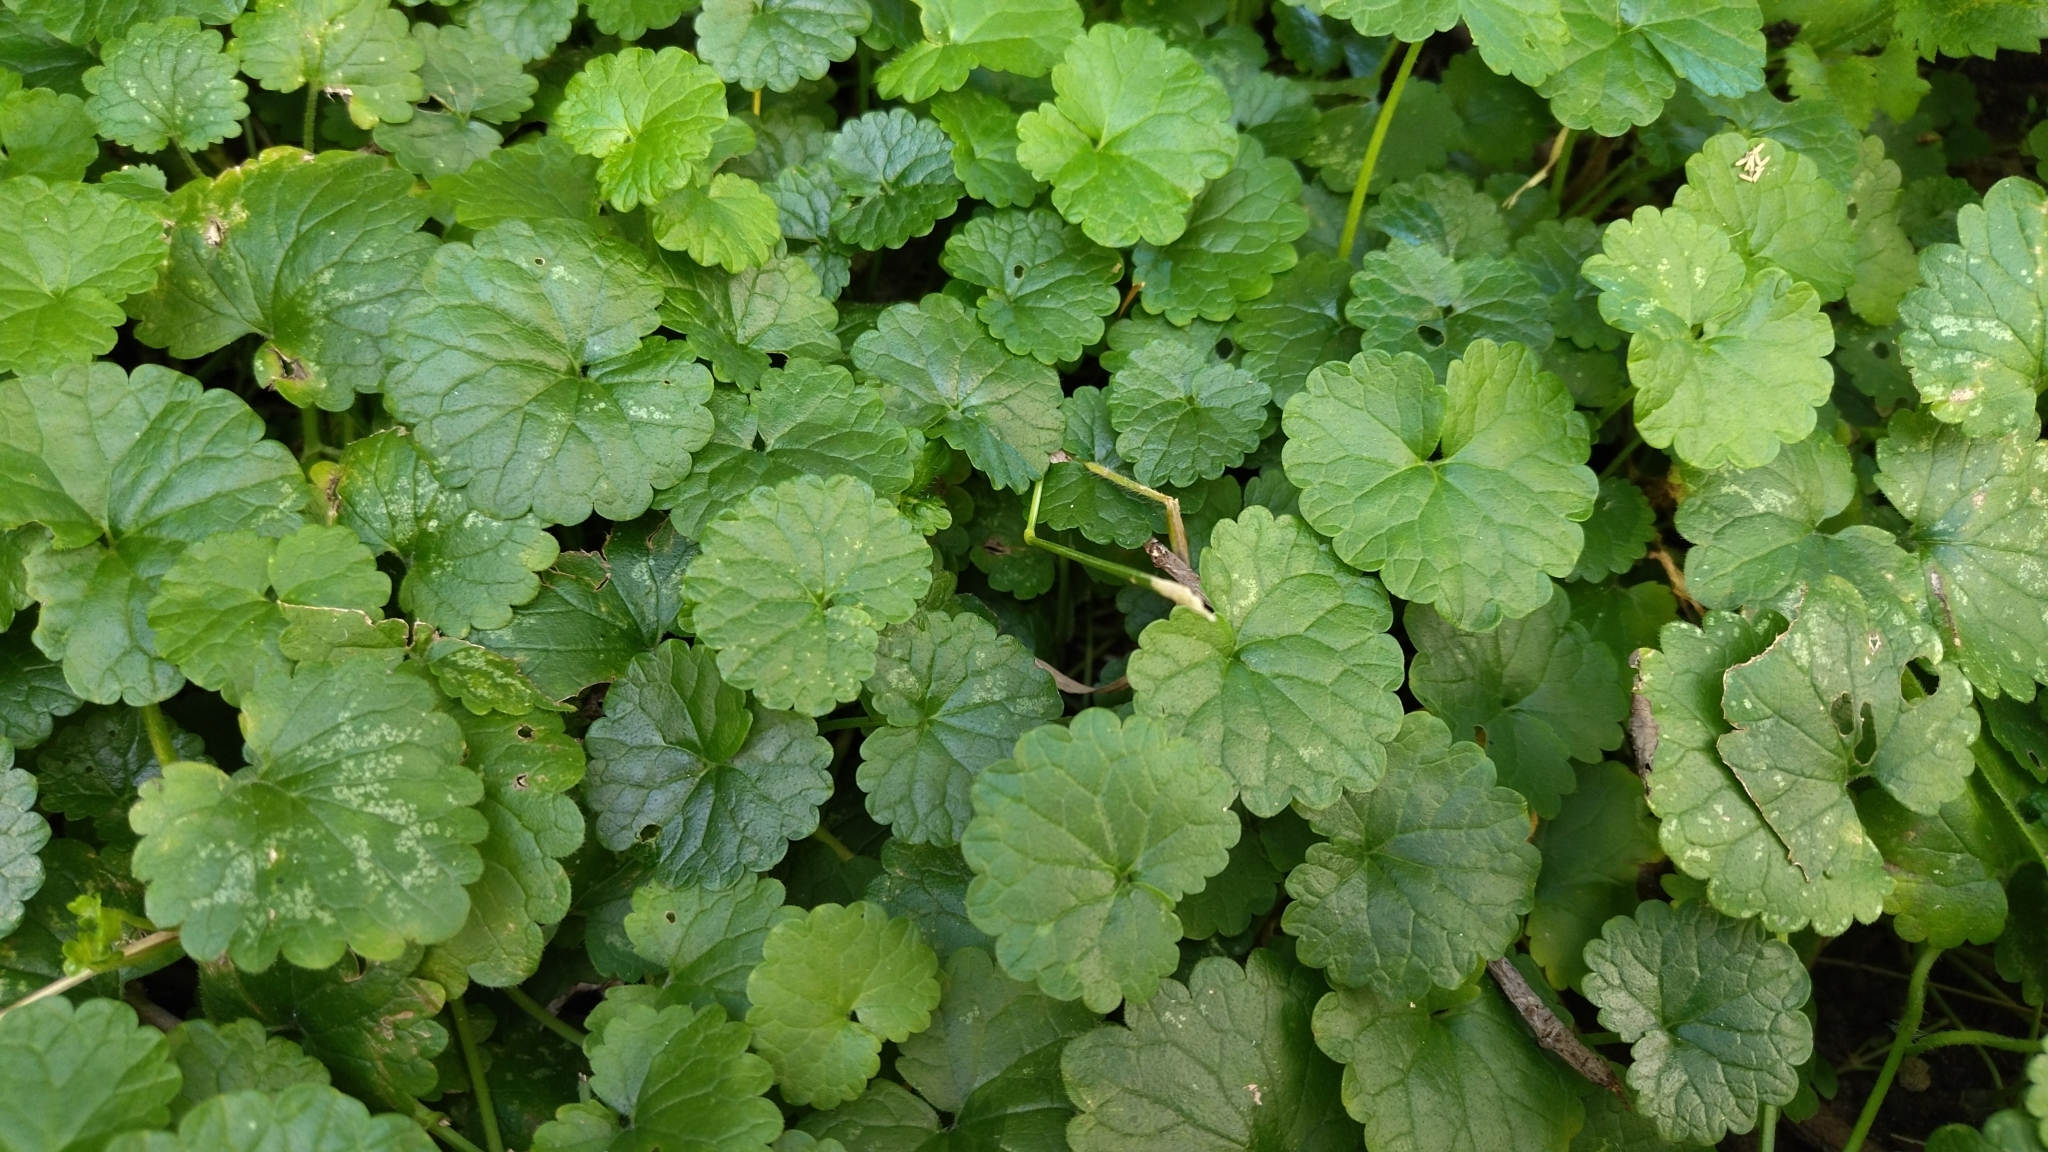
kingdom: Plantae
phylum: Tracheophyta
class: Magnoliopsida
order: Lamiales
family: Lamiaceae
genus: Glechoma
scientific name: Glechoma hederacea
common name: Ground ivy
